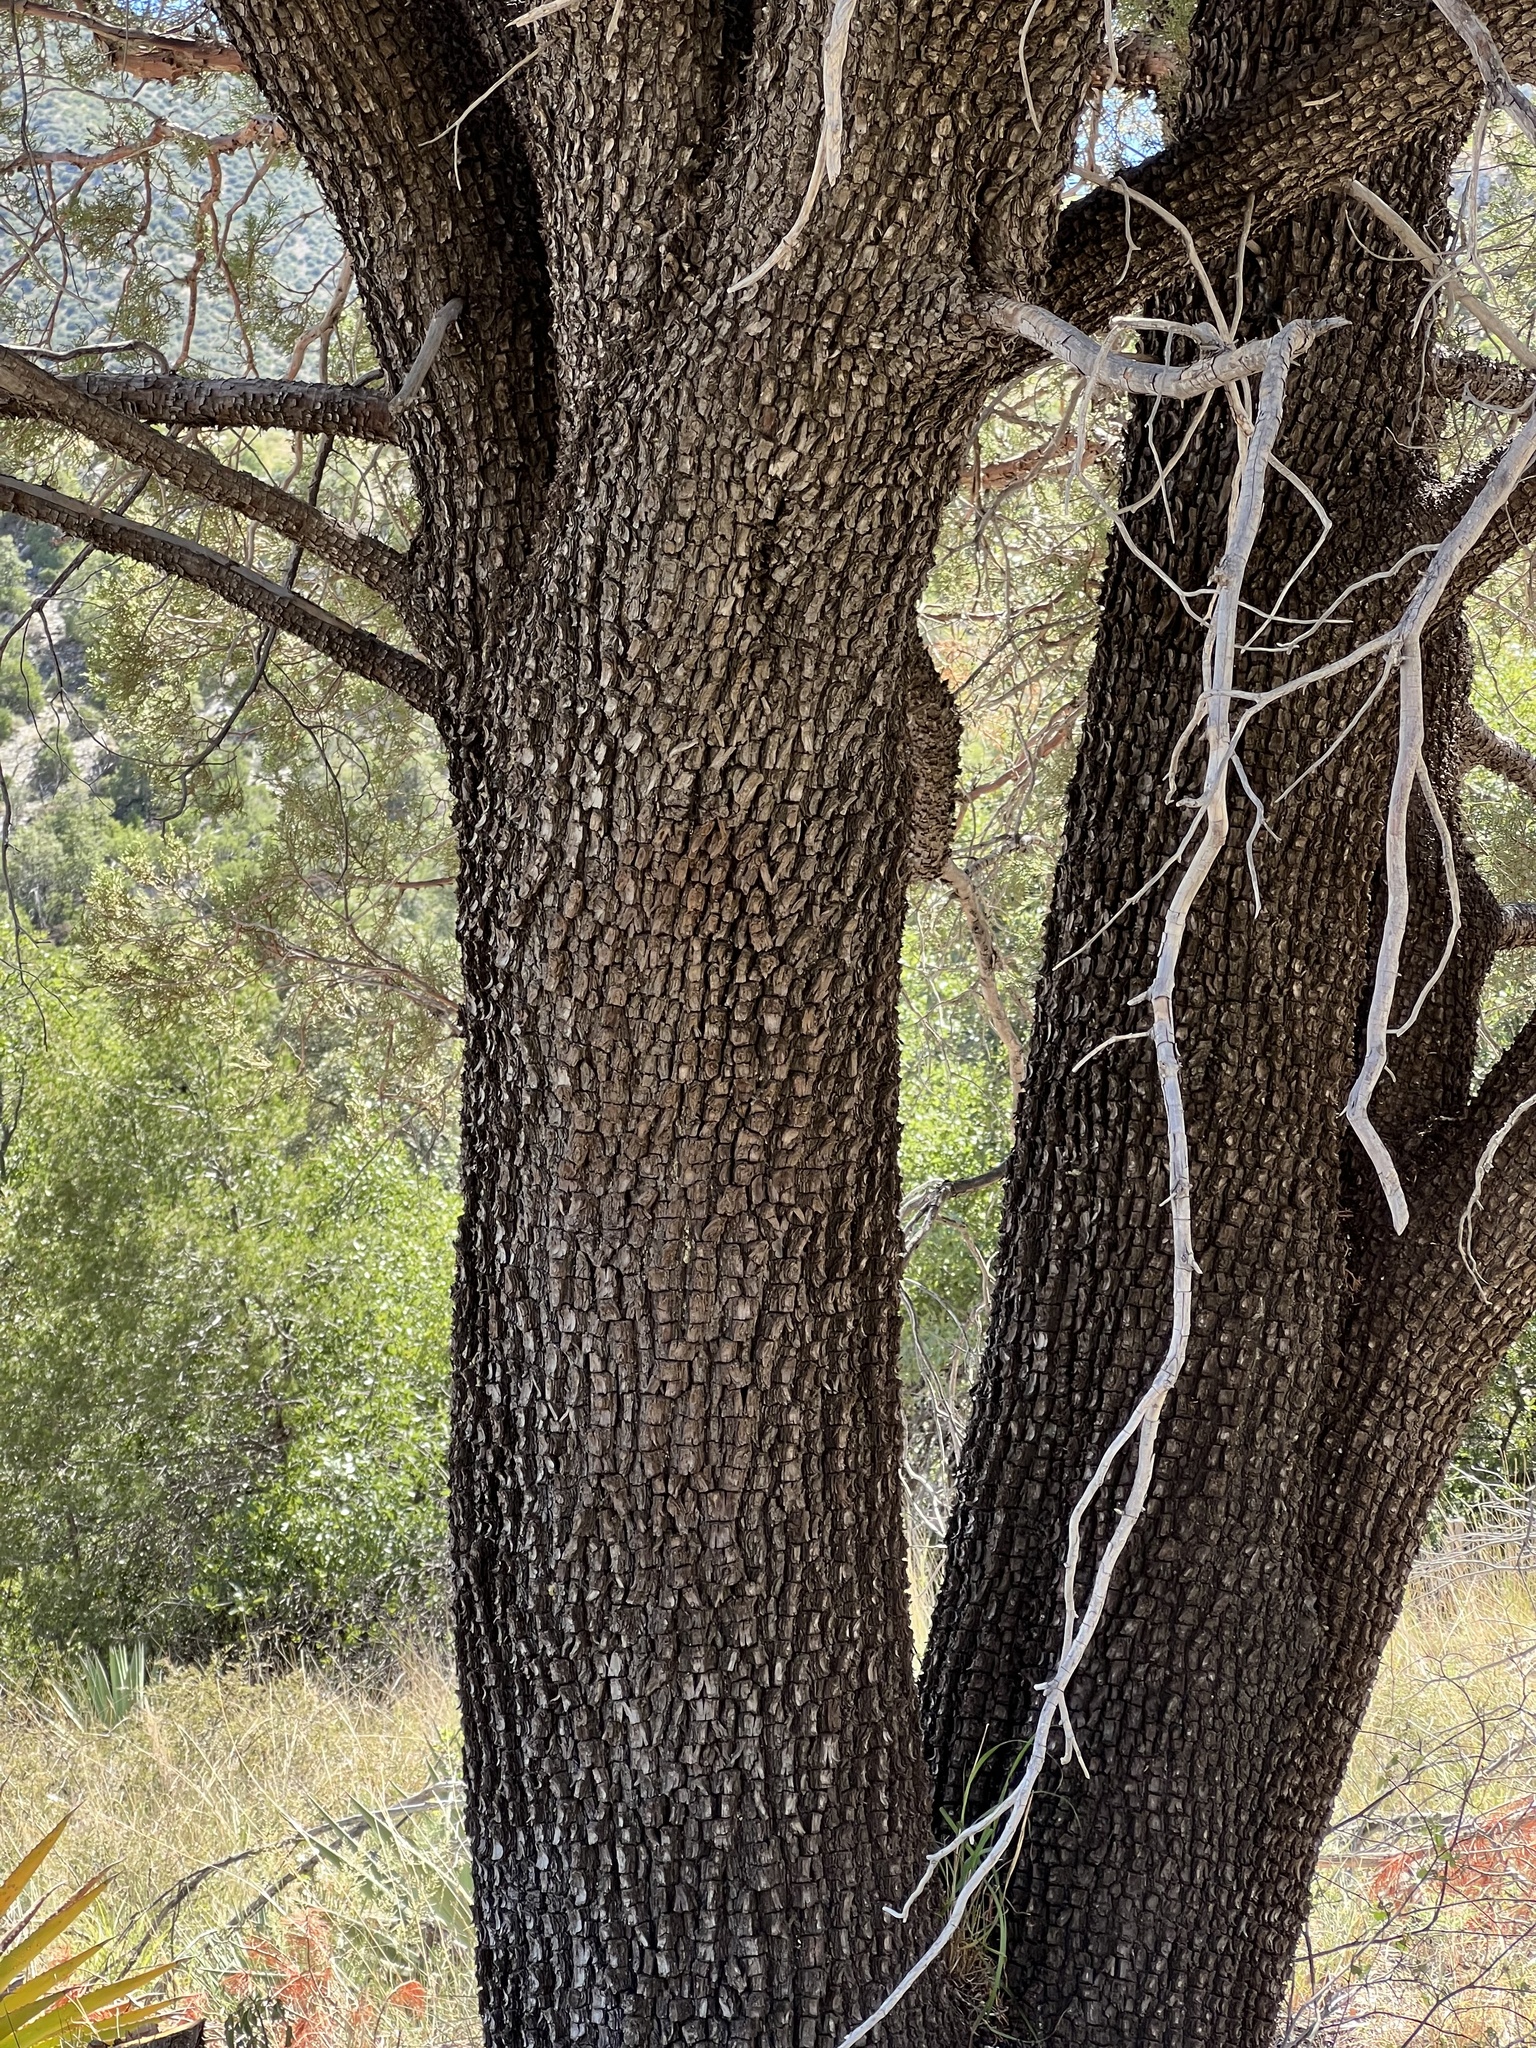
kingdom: Plantae
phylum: Tracheophyta
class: Pinopsida
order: Pinales
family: Cupressaceae
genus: Juniperus
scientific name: Juniperus deppeana
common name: Alligator juniper
